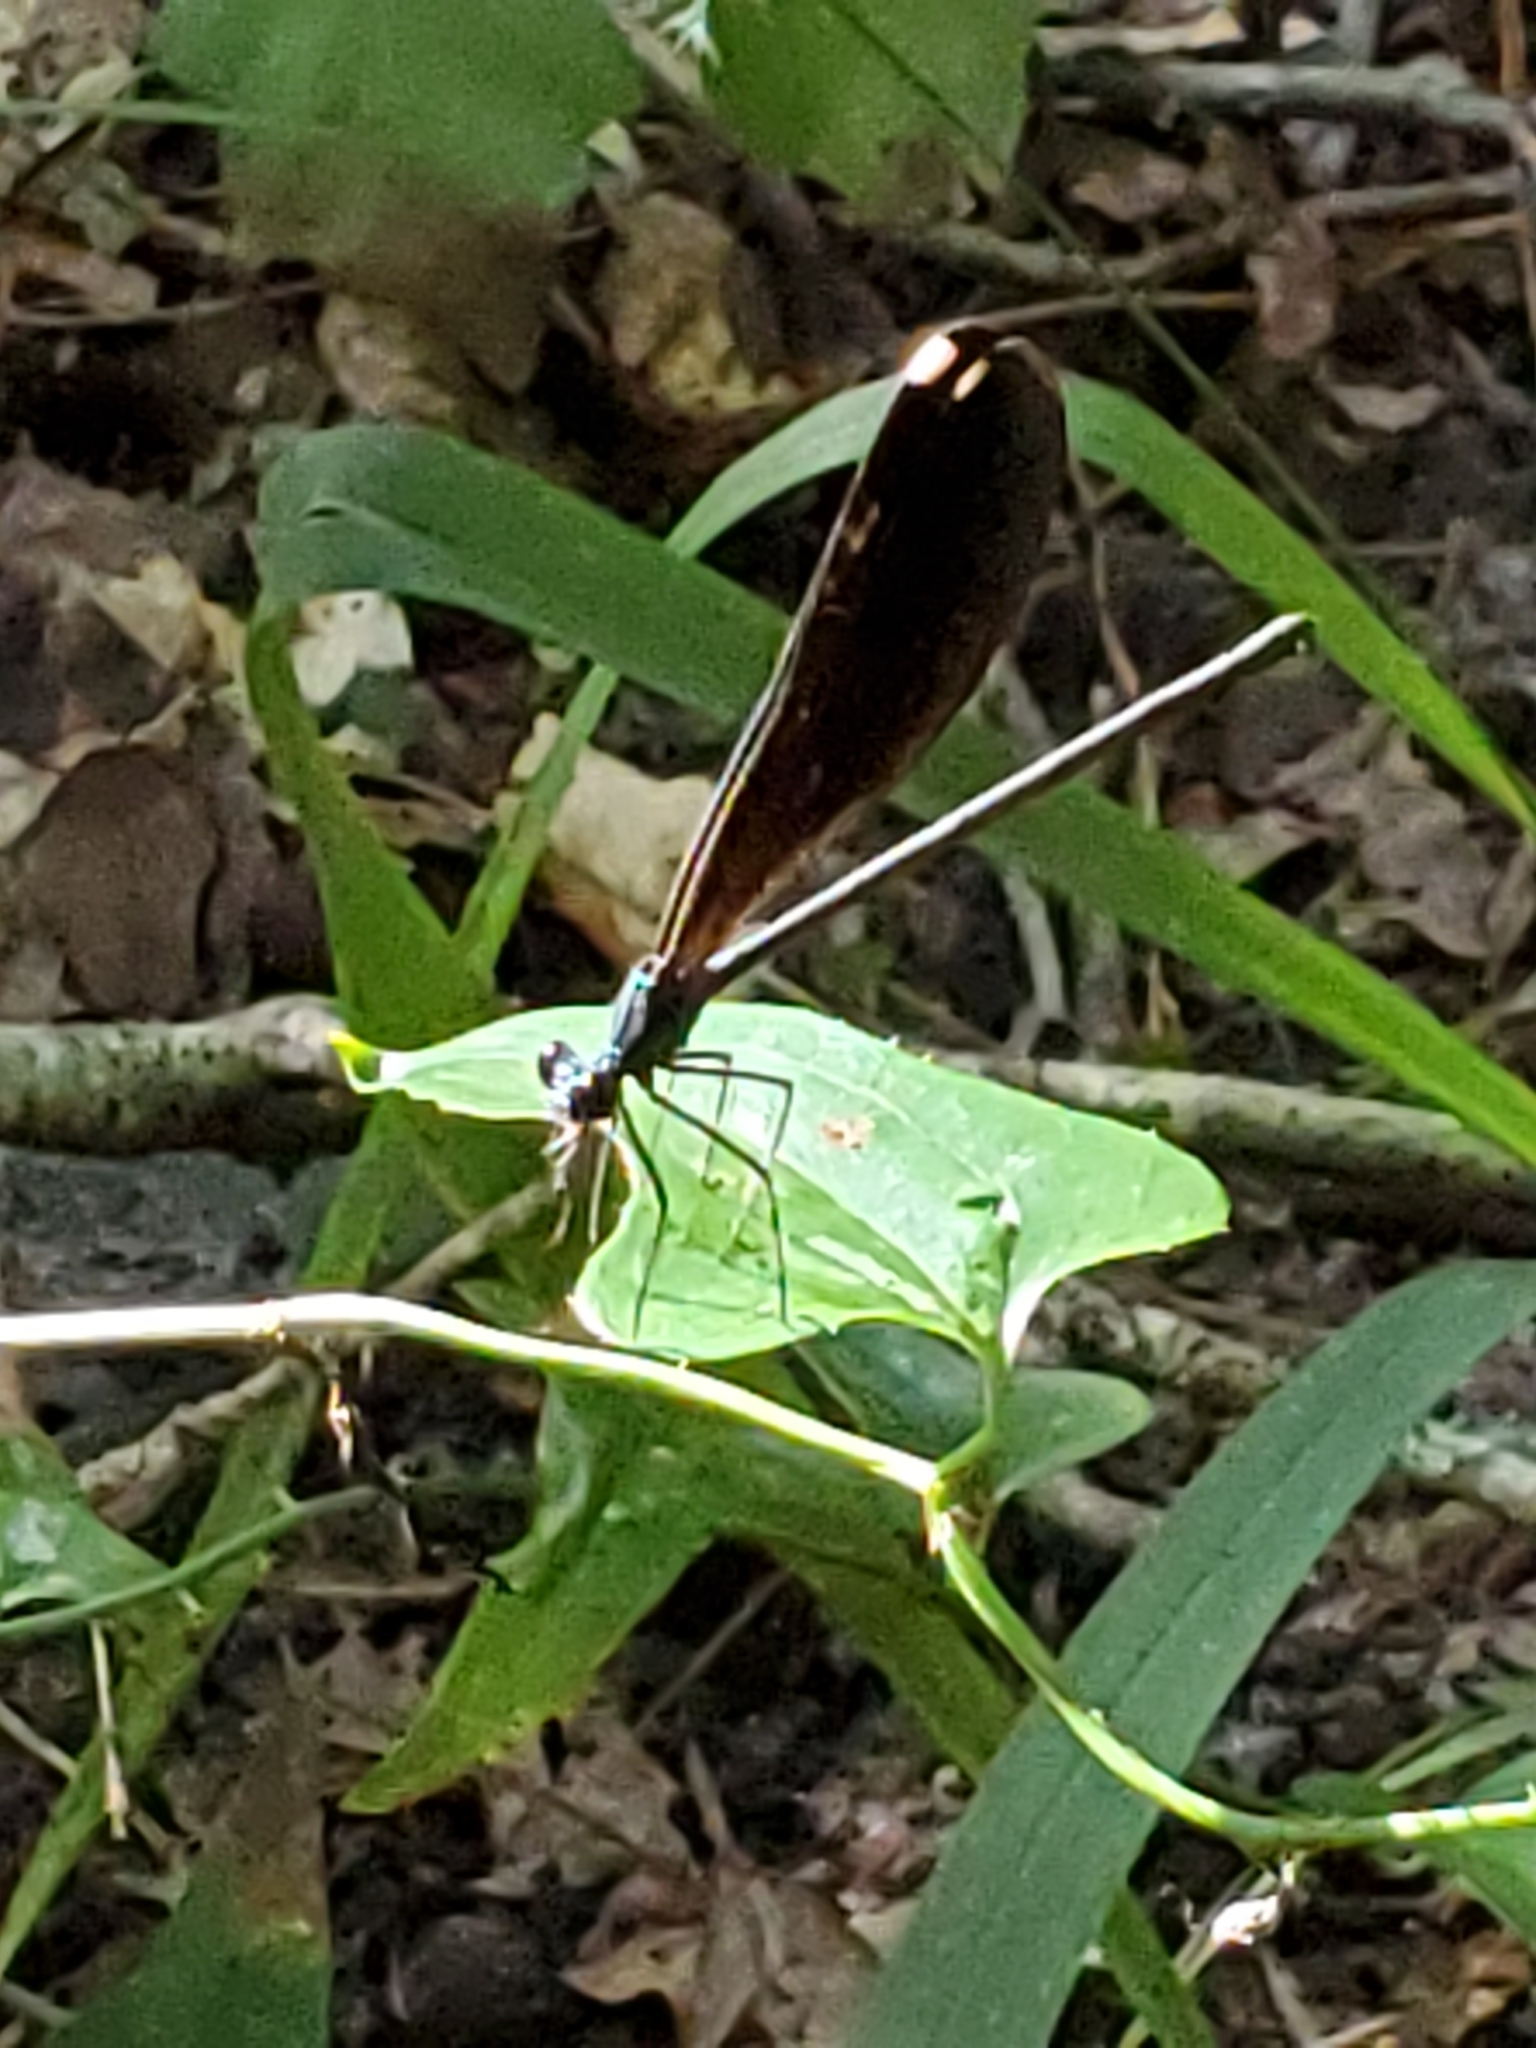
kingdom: Animalia
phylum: Arthropoda
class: Insecta
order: Odonata
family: Calopterygidae
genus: Calopteryx
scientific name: Calopteryx maculata
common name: Ebony jewelwing
